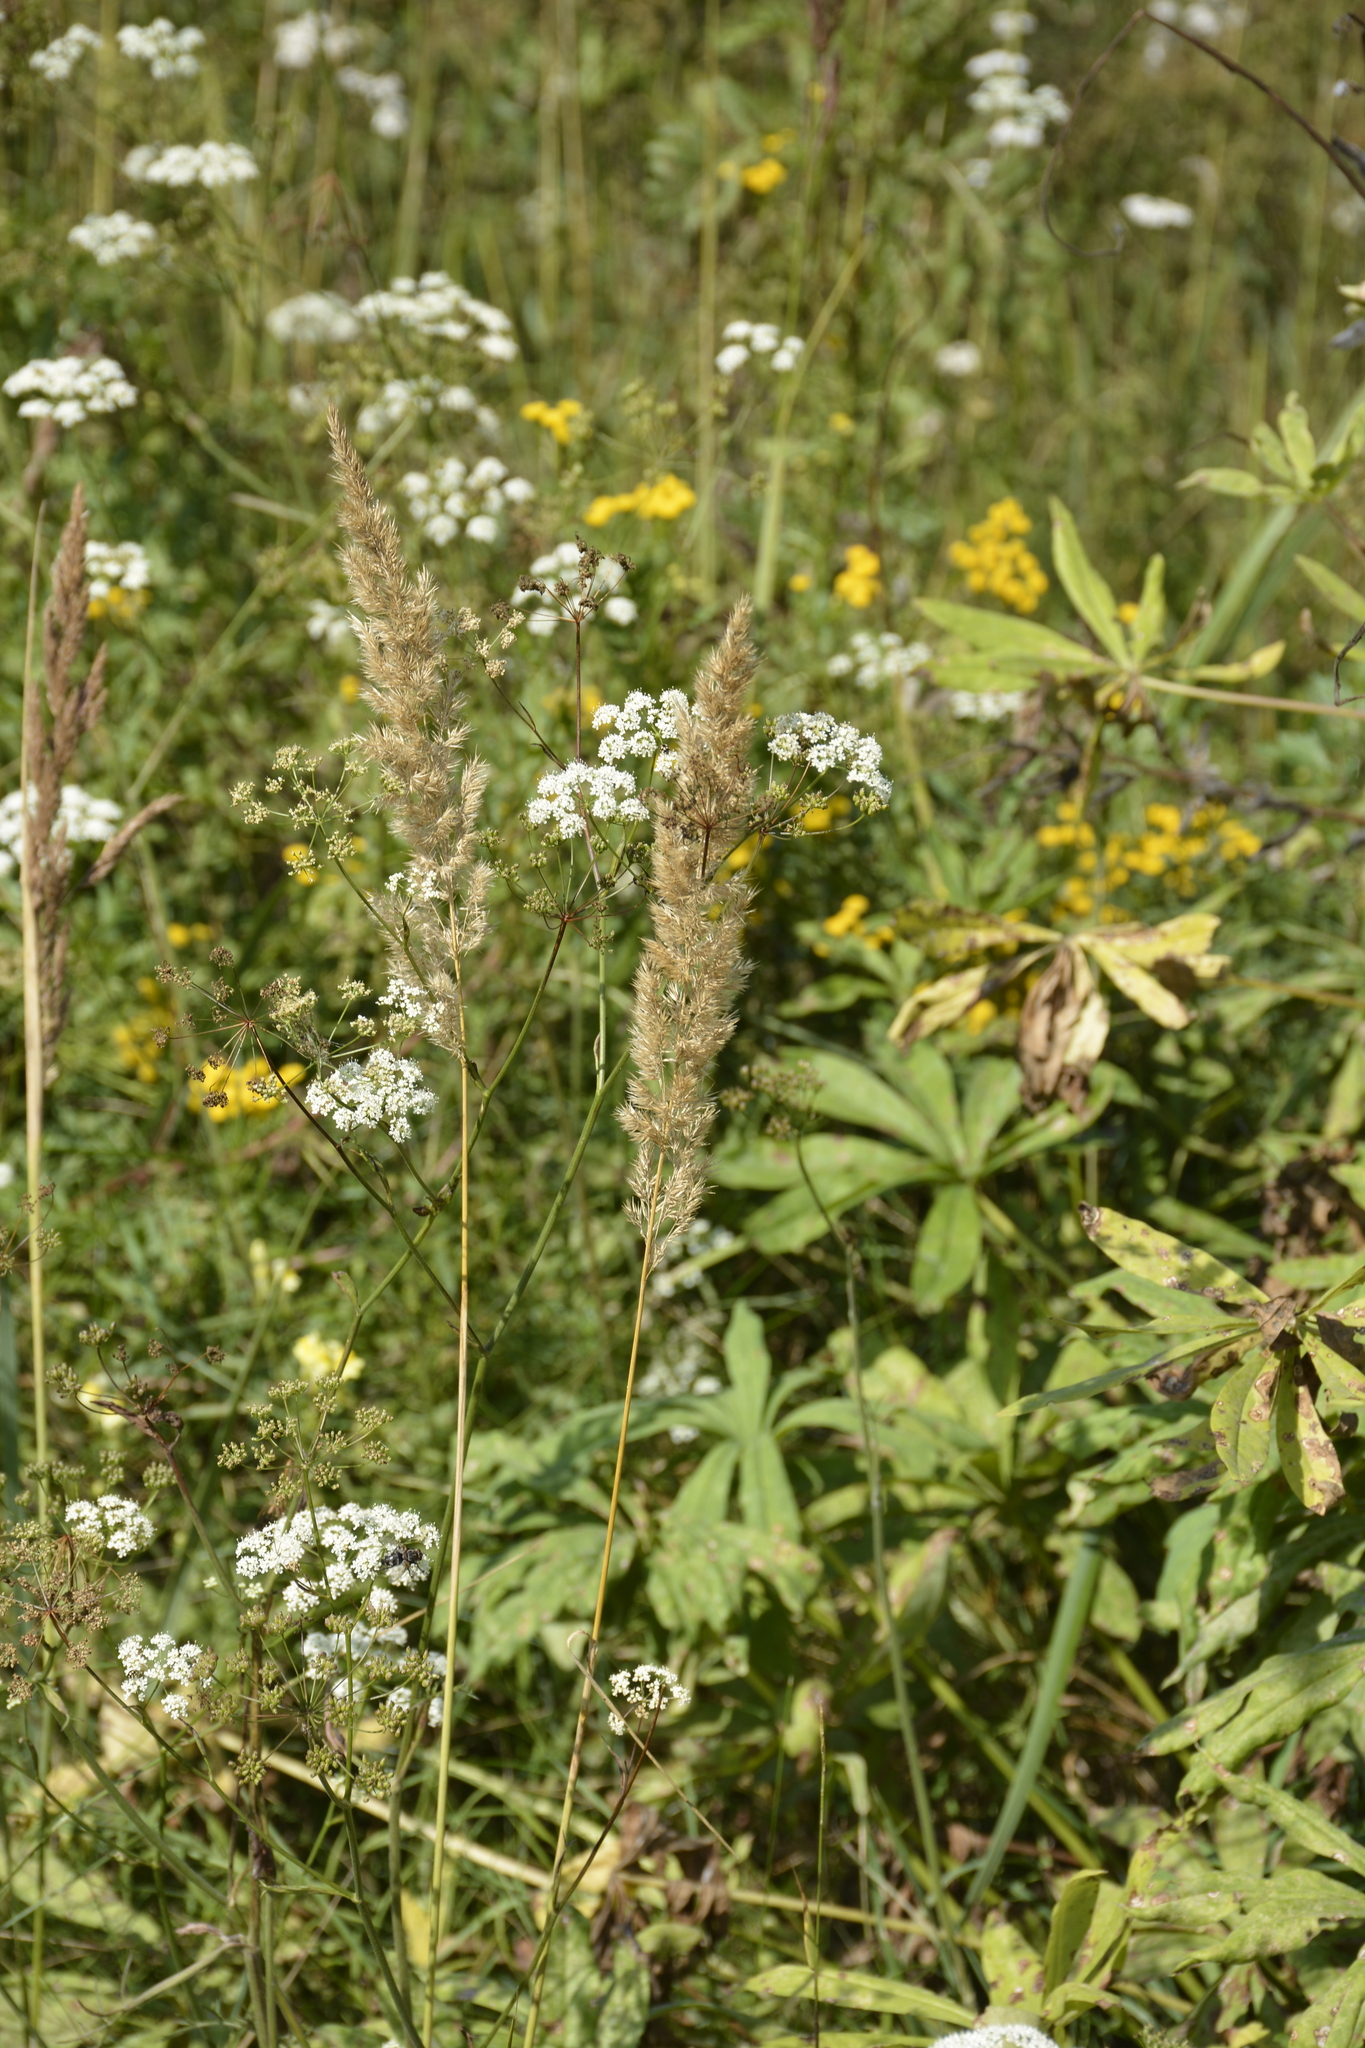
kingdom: Plantae
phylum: Tracheophyta
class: Liliopsida
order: Poales
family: Poaceae
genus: Calamagrostis
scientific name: Calamagrostis epigejos
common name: Wood small-reed
